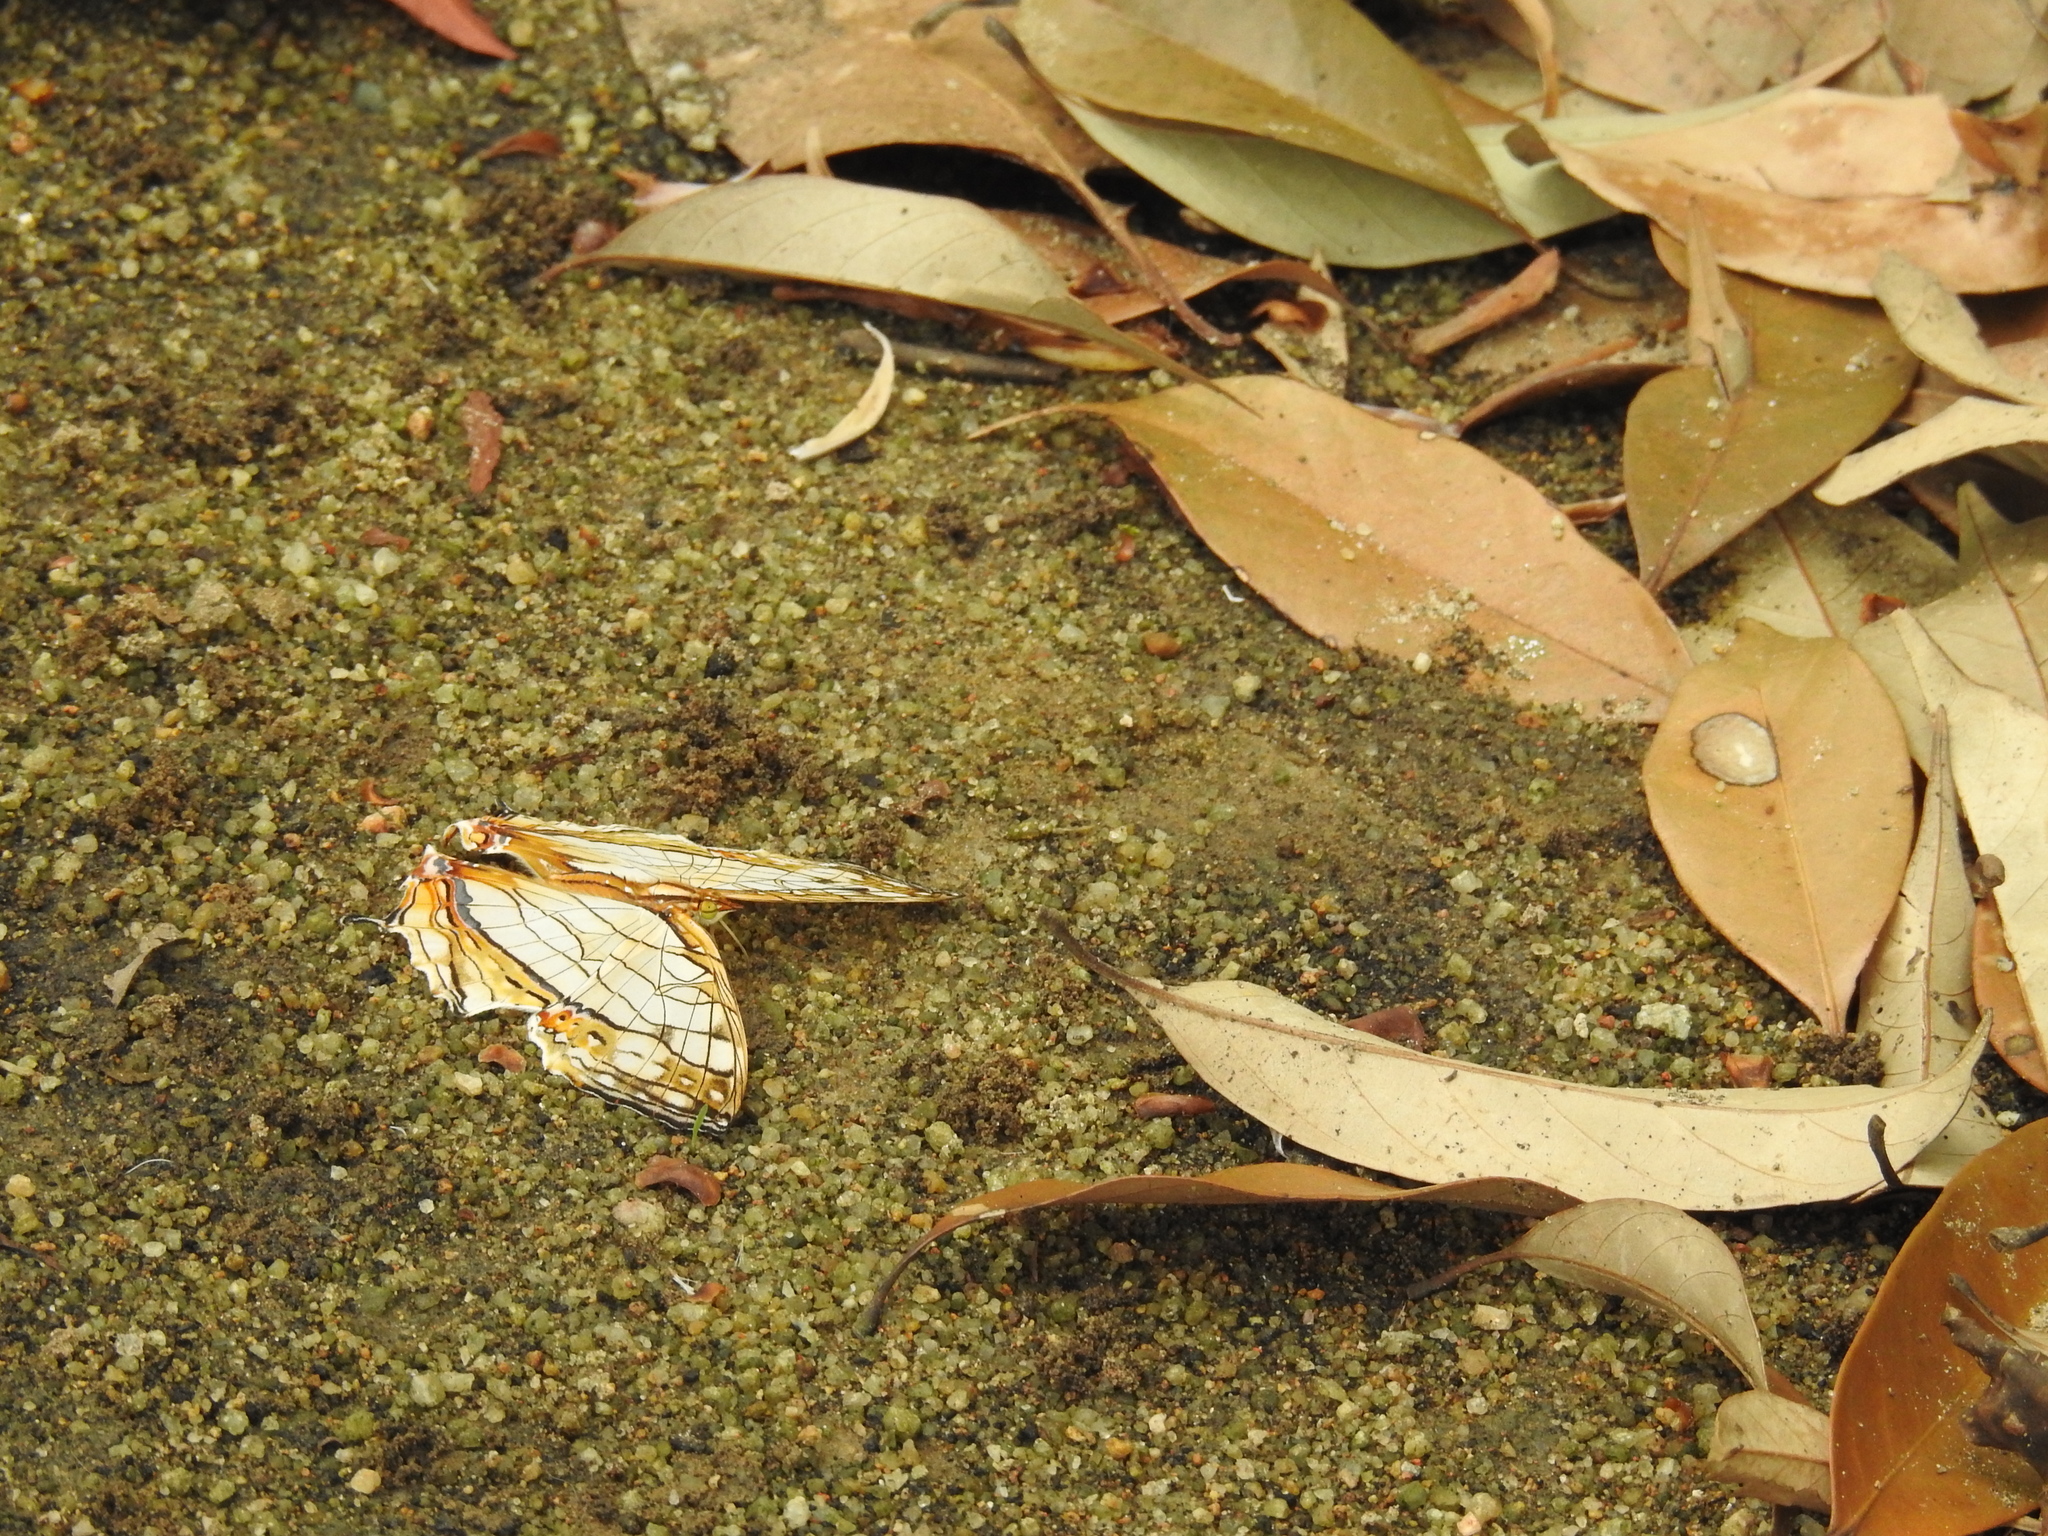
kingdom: Animalia
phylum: Arthropoda
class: Insecta
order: Lepidoptera
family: Nymphalidae
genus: Cyrestis
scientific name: Cyrestis thyodamas
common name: Common mapwing
